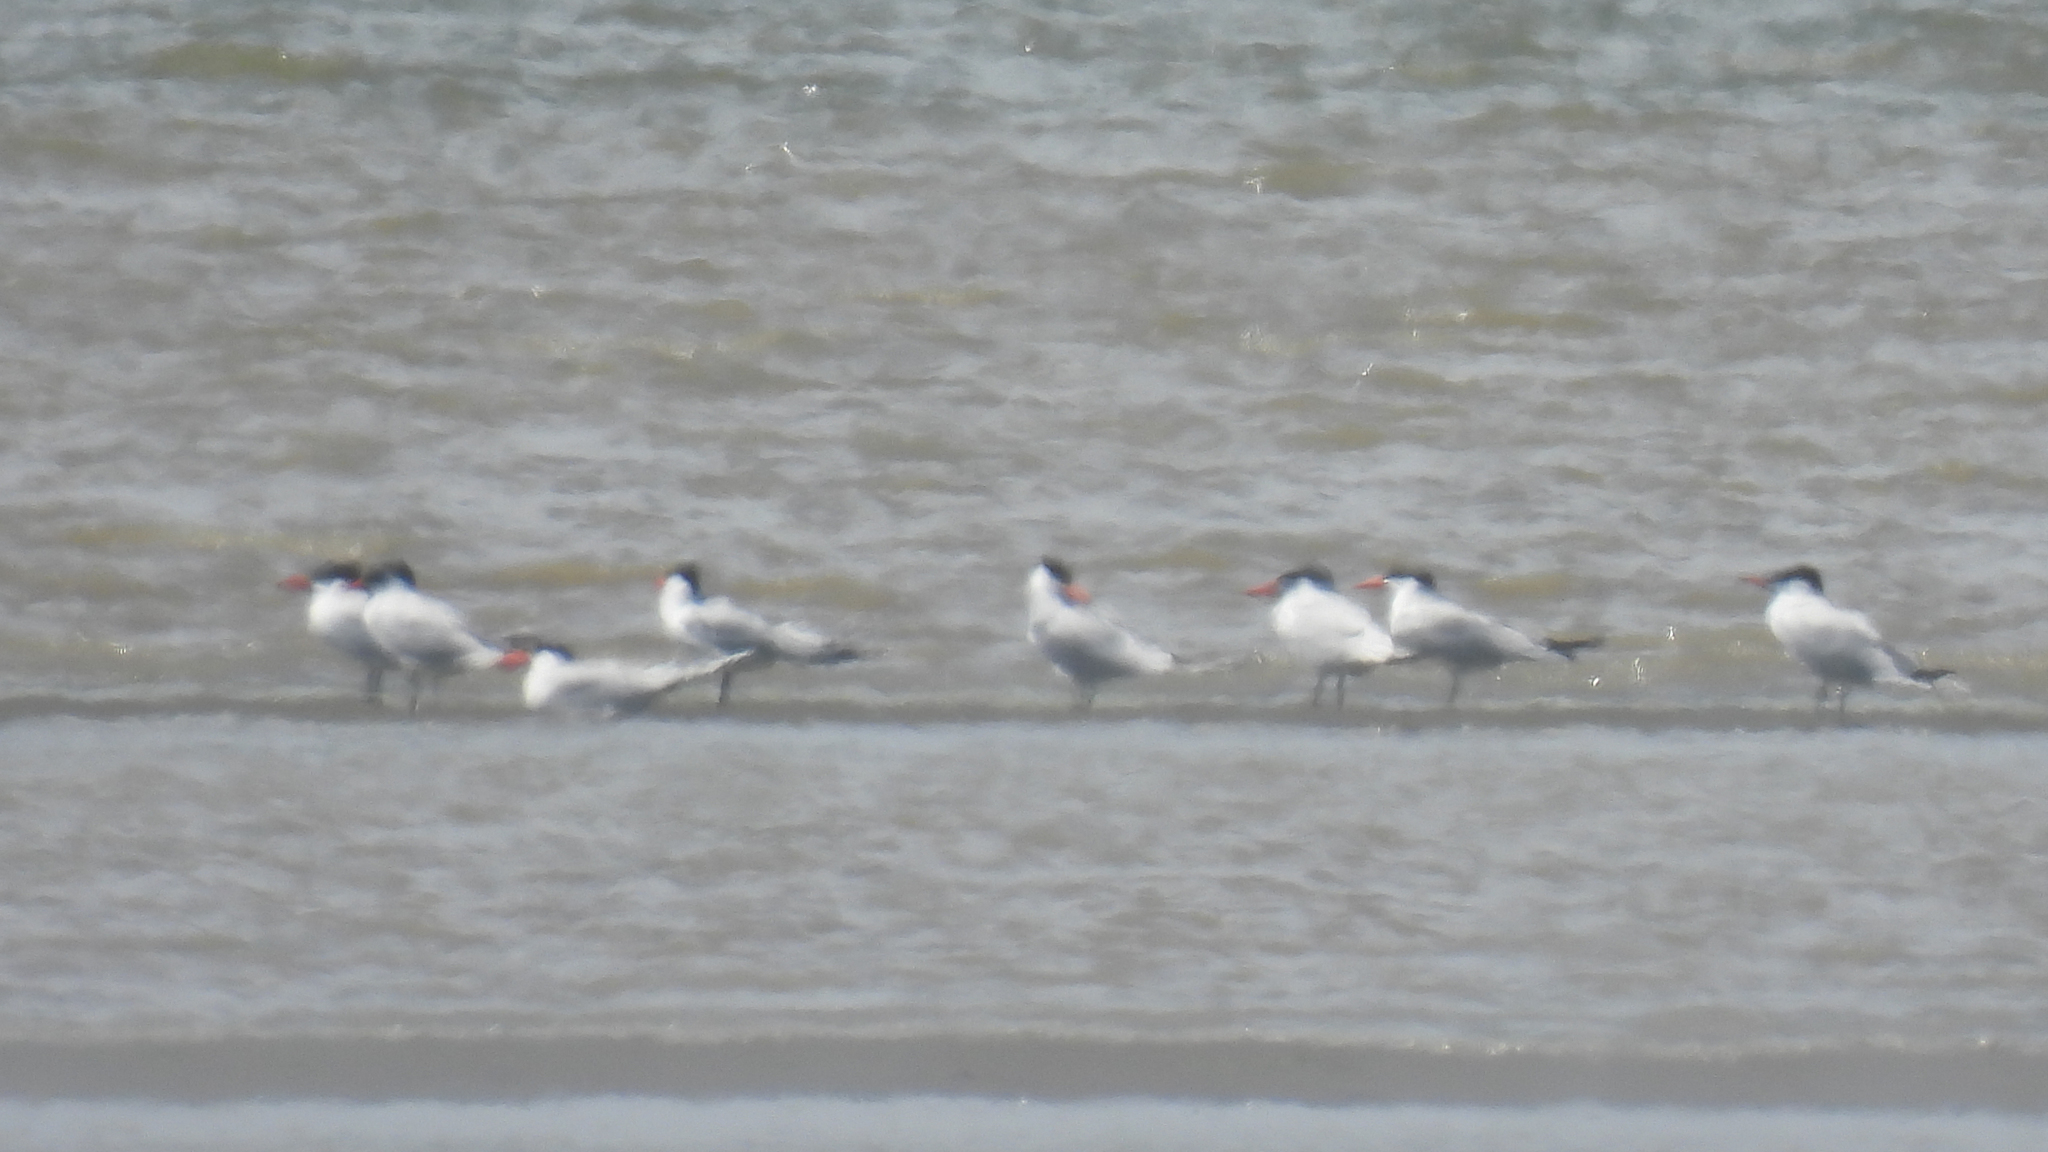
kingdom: Animalia
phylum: Chordata
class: Aves
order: Charadriiformes
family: Laridae
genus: Hydroprogne
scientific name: Hydroprogne caspia
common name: Caspian tern
